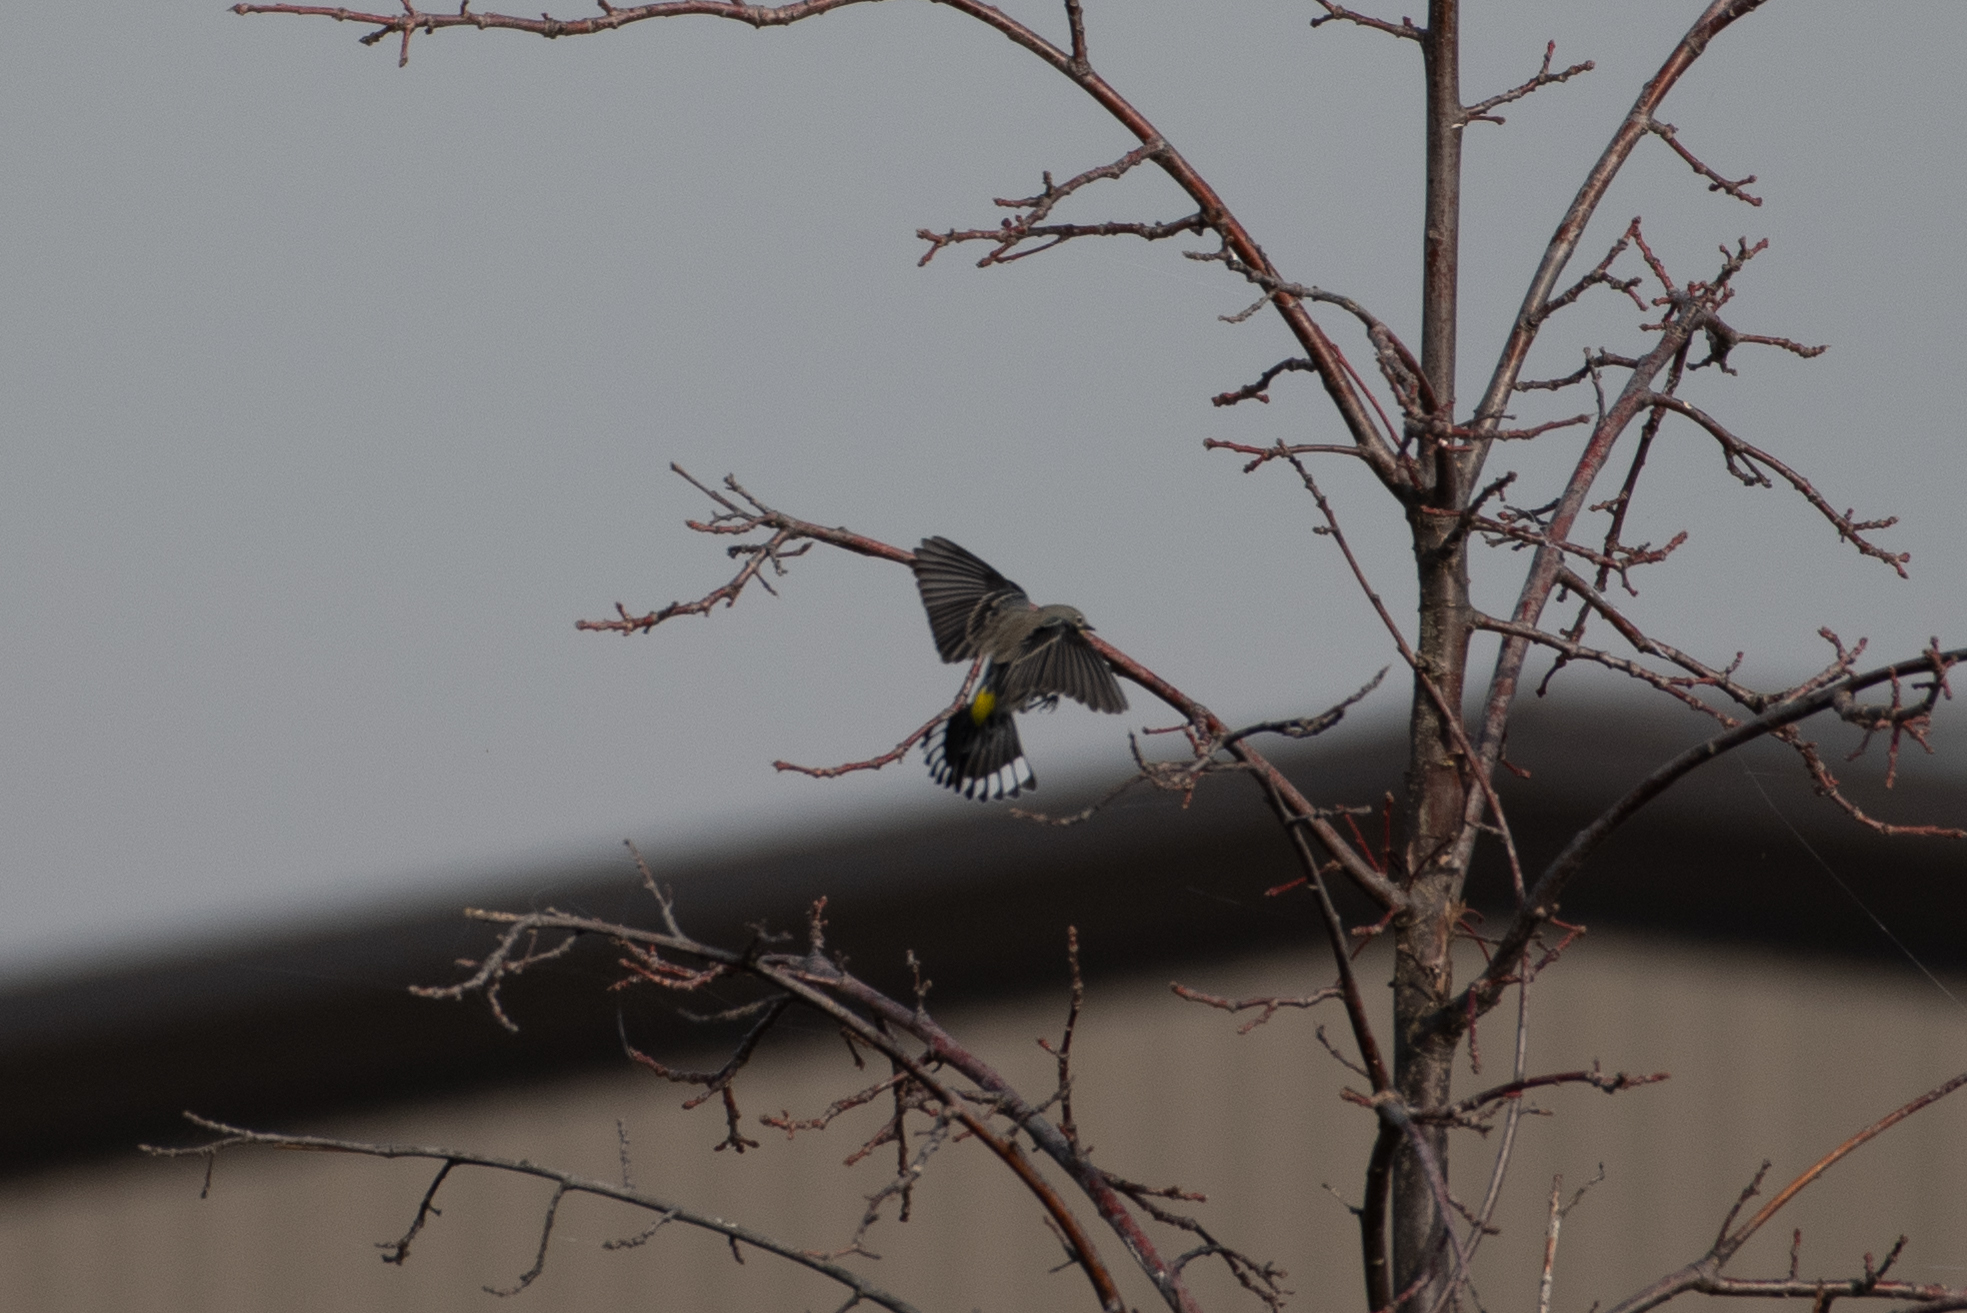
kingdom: Animalia
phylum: Chordata
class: Aves
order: Passeriformes
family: Parulidae
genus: Setophaga
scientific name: Setophaga coronata
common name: Myrtle warbler
